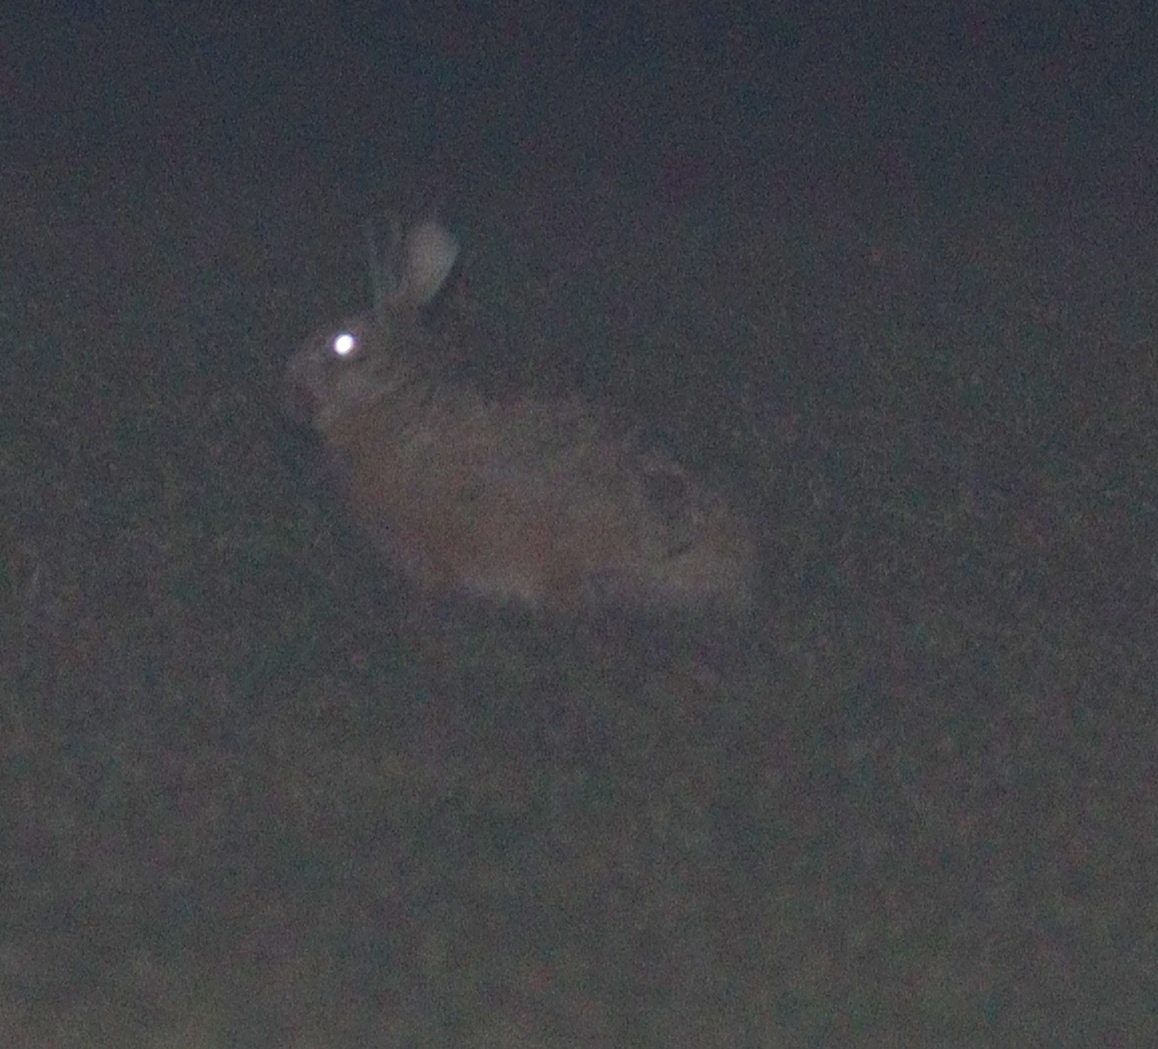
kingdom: Animalia
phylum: Chordata
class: Mammalia
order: Lagomorpha
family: Leporidae
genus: Lepus
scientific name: Lepus europaeus
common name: European hare
